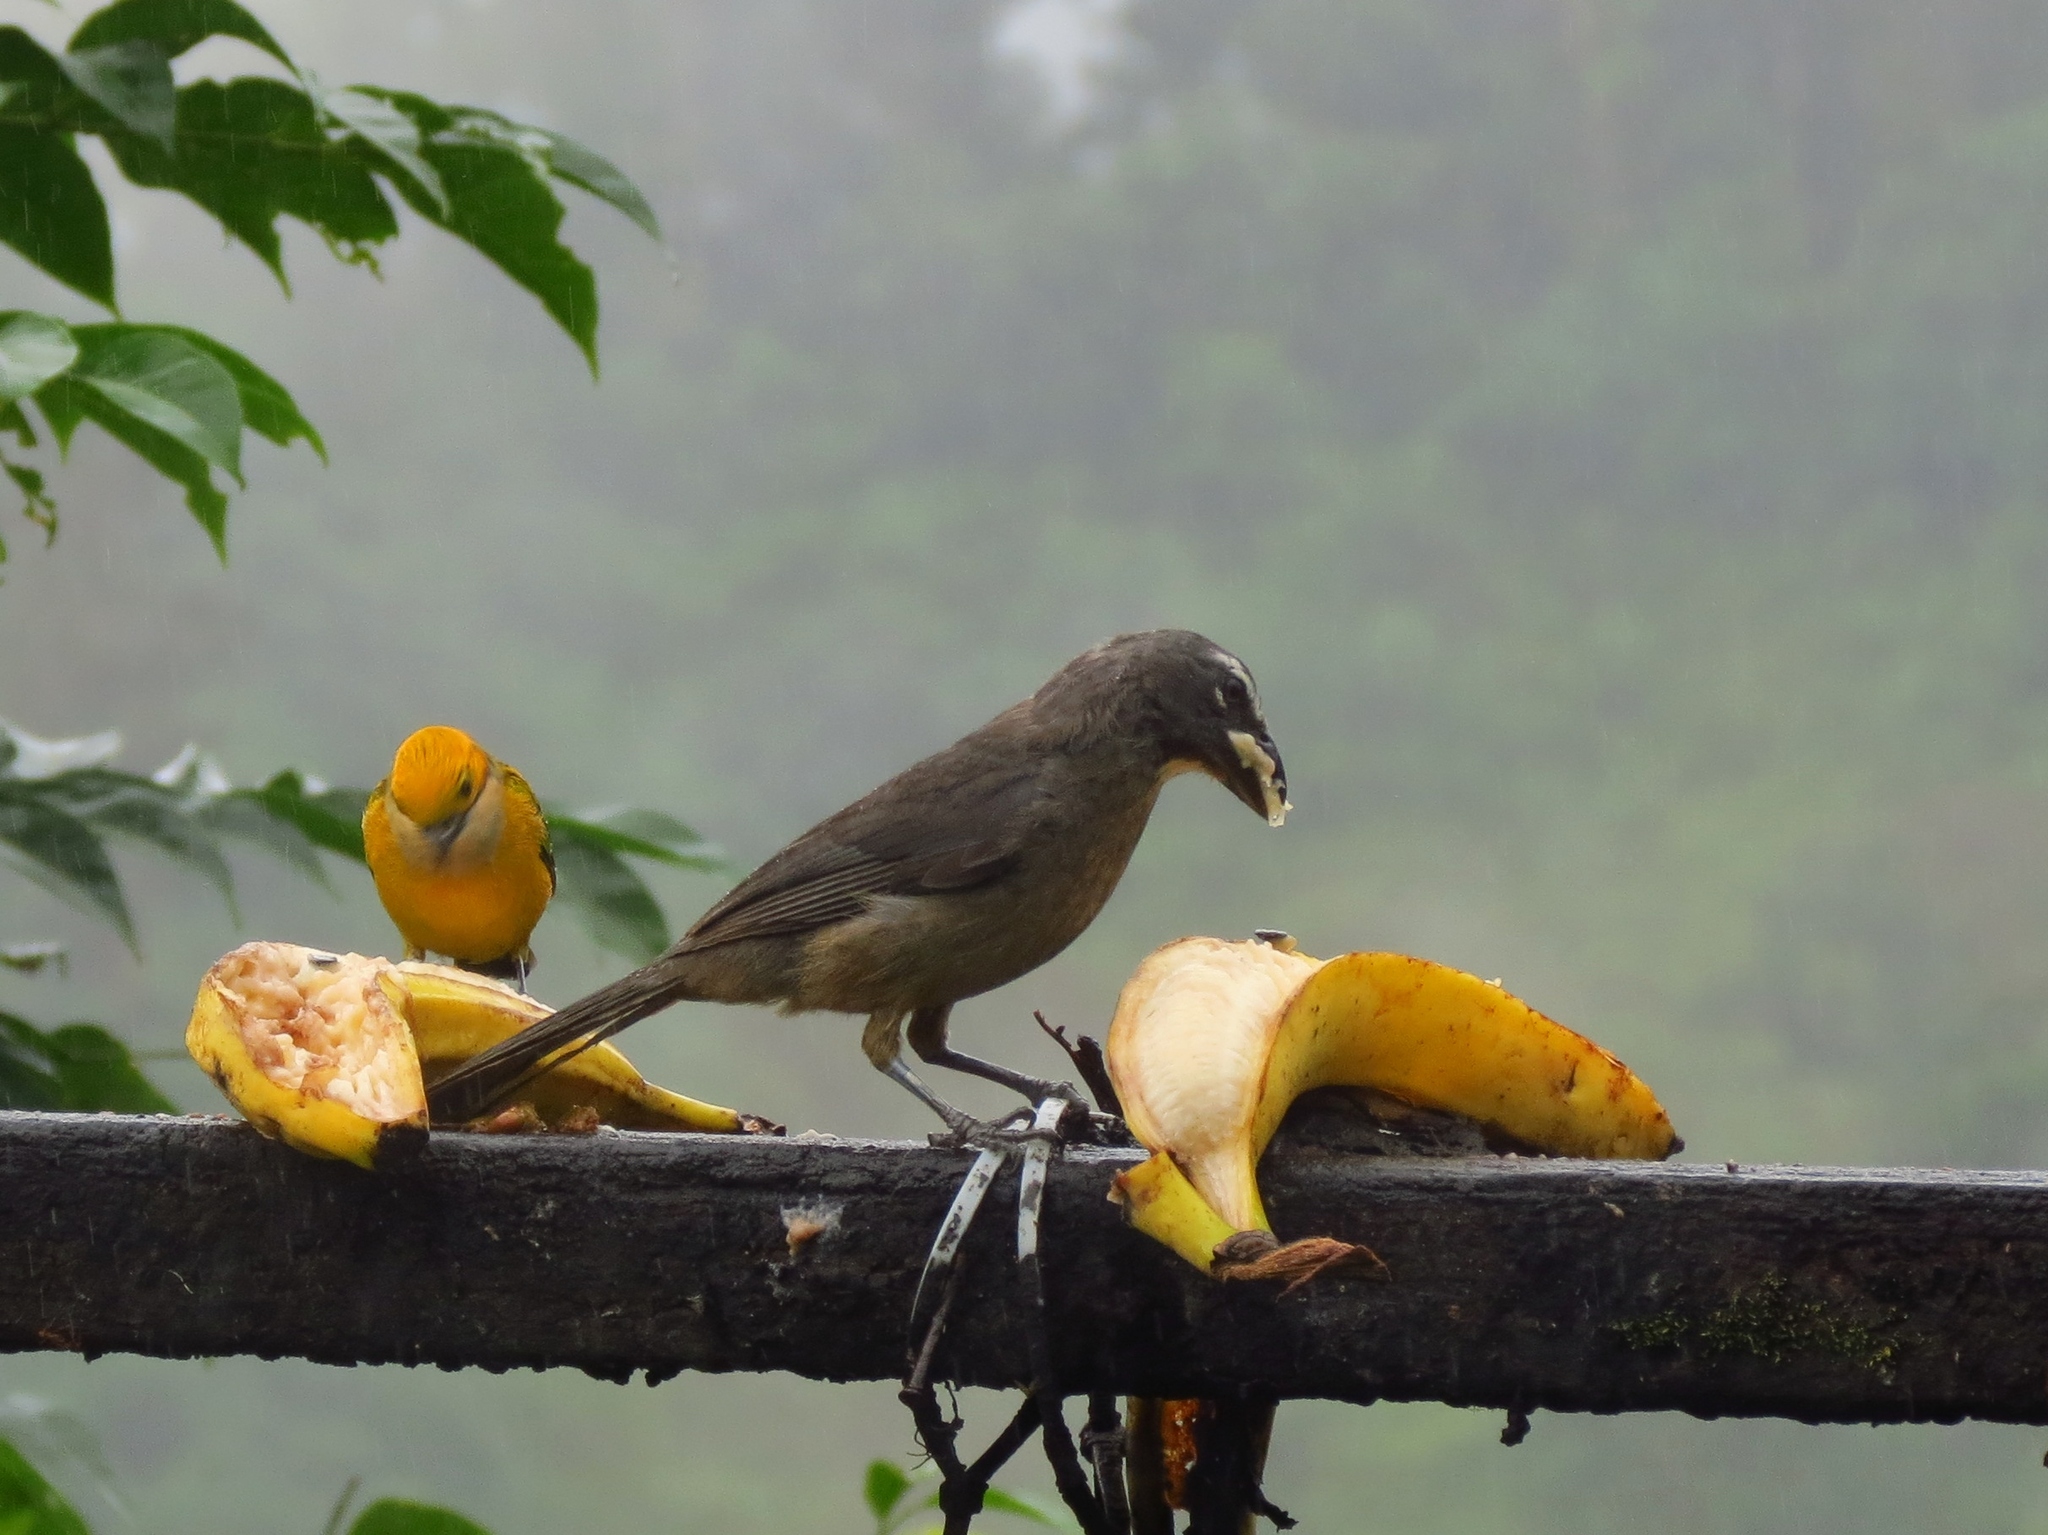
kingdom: Animalia
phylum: Chordata
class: Aves
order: Passeriformes
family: Thraupidae
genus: Saltator
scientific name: Saltator grandis
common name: Cinnamon-bellied saltator
